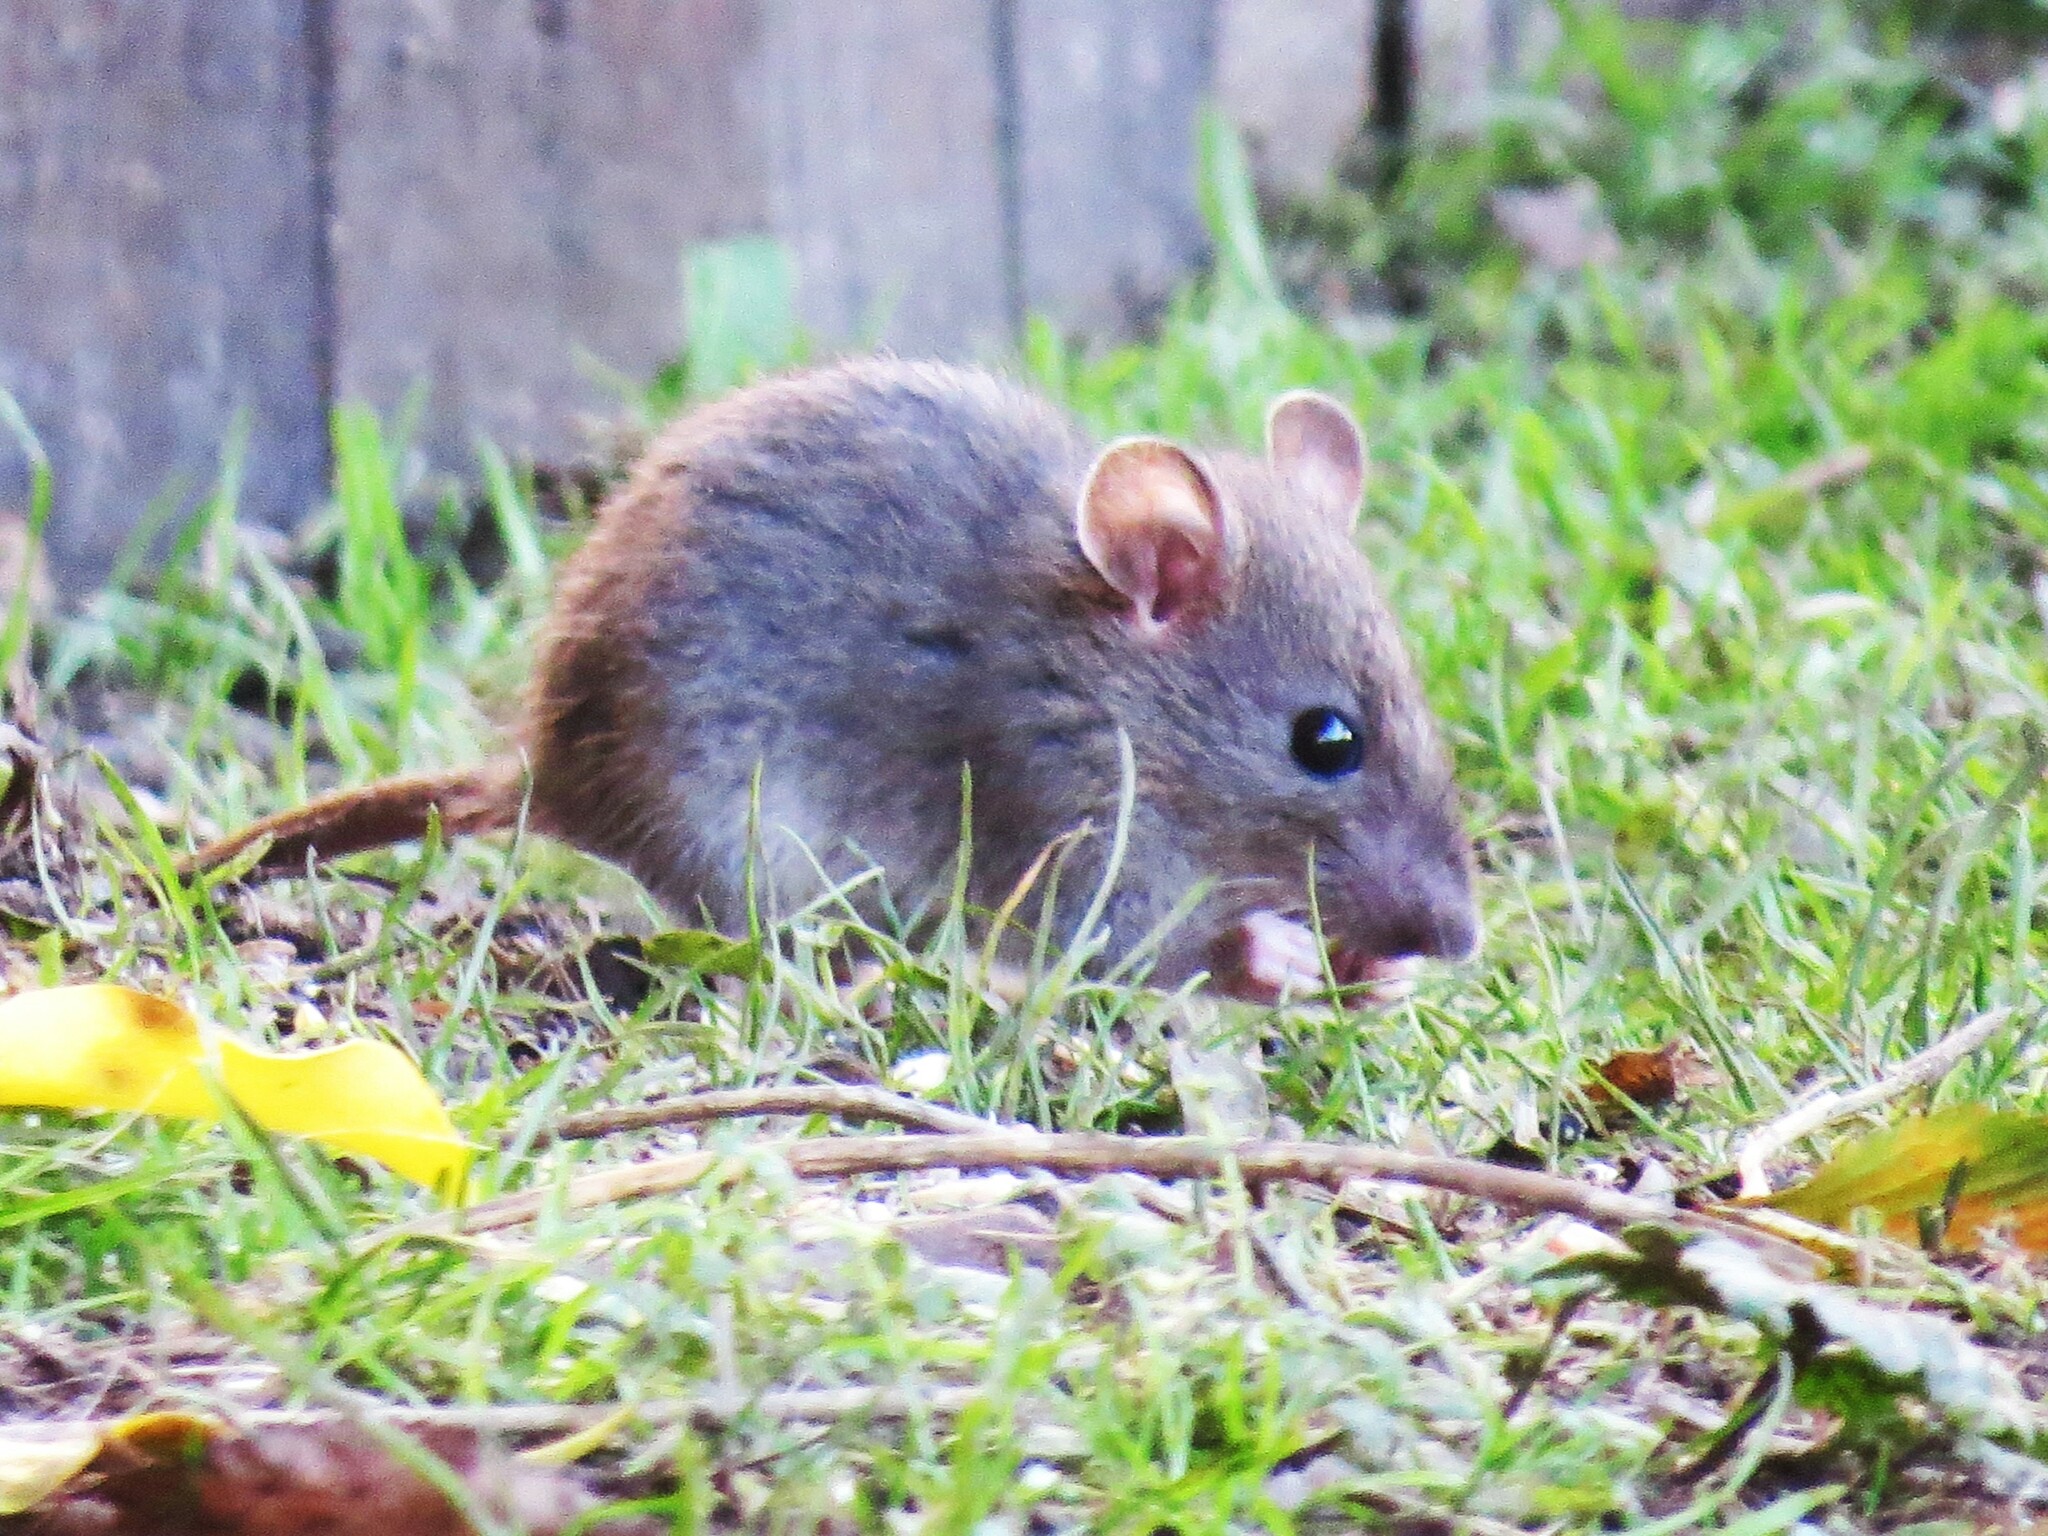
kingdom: Animalia
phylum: Chordata
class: Mammalia
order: Rodentia
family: Muridae
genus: Mus
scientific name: Mus musculus
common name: House mouse
